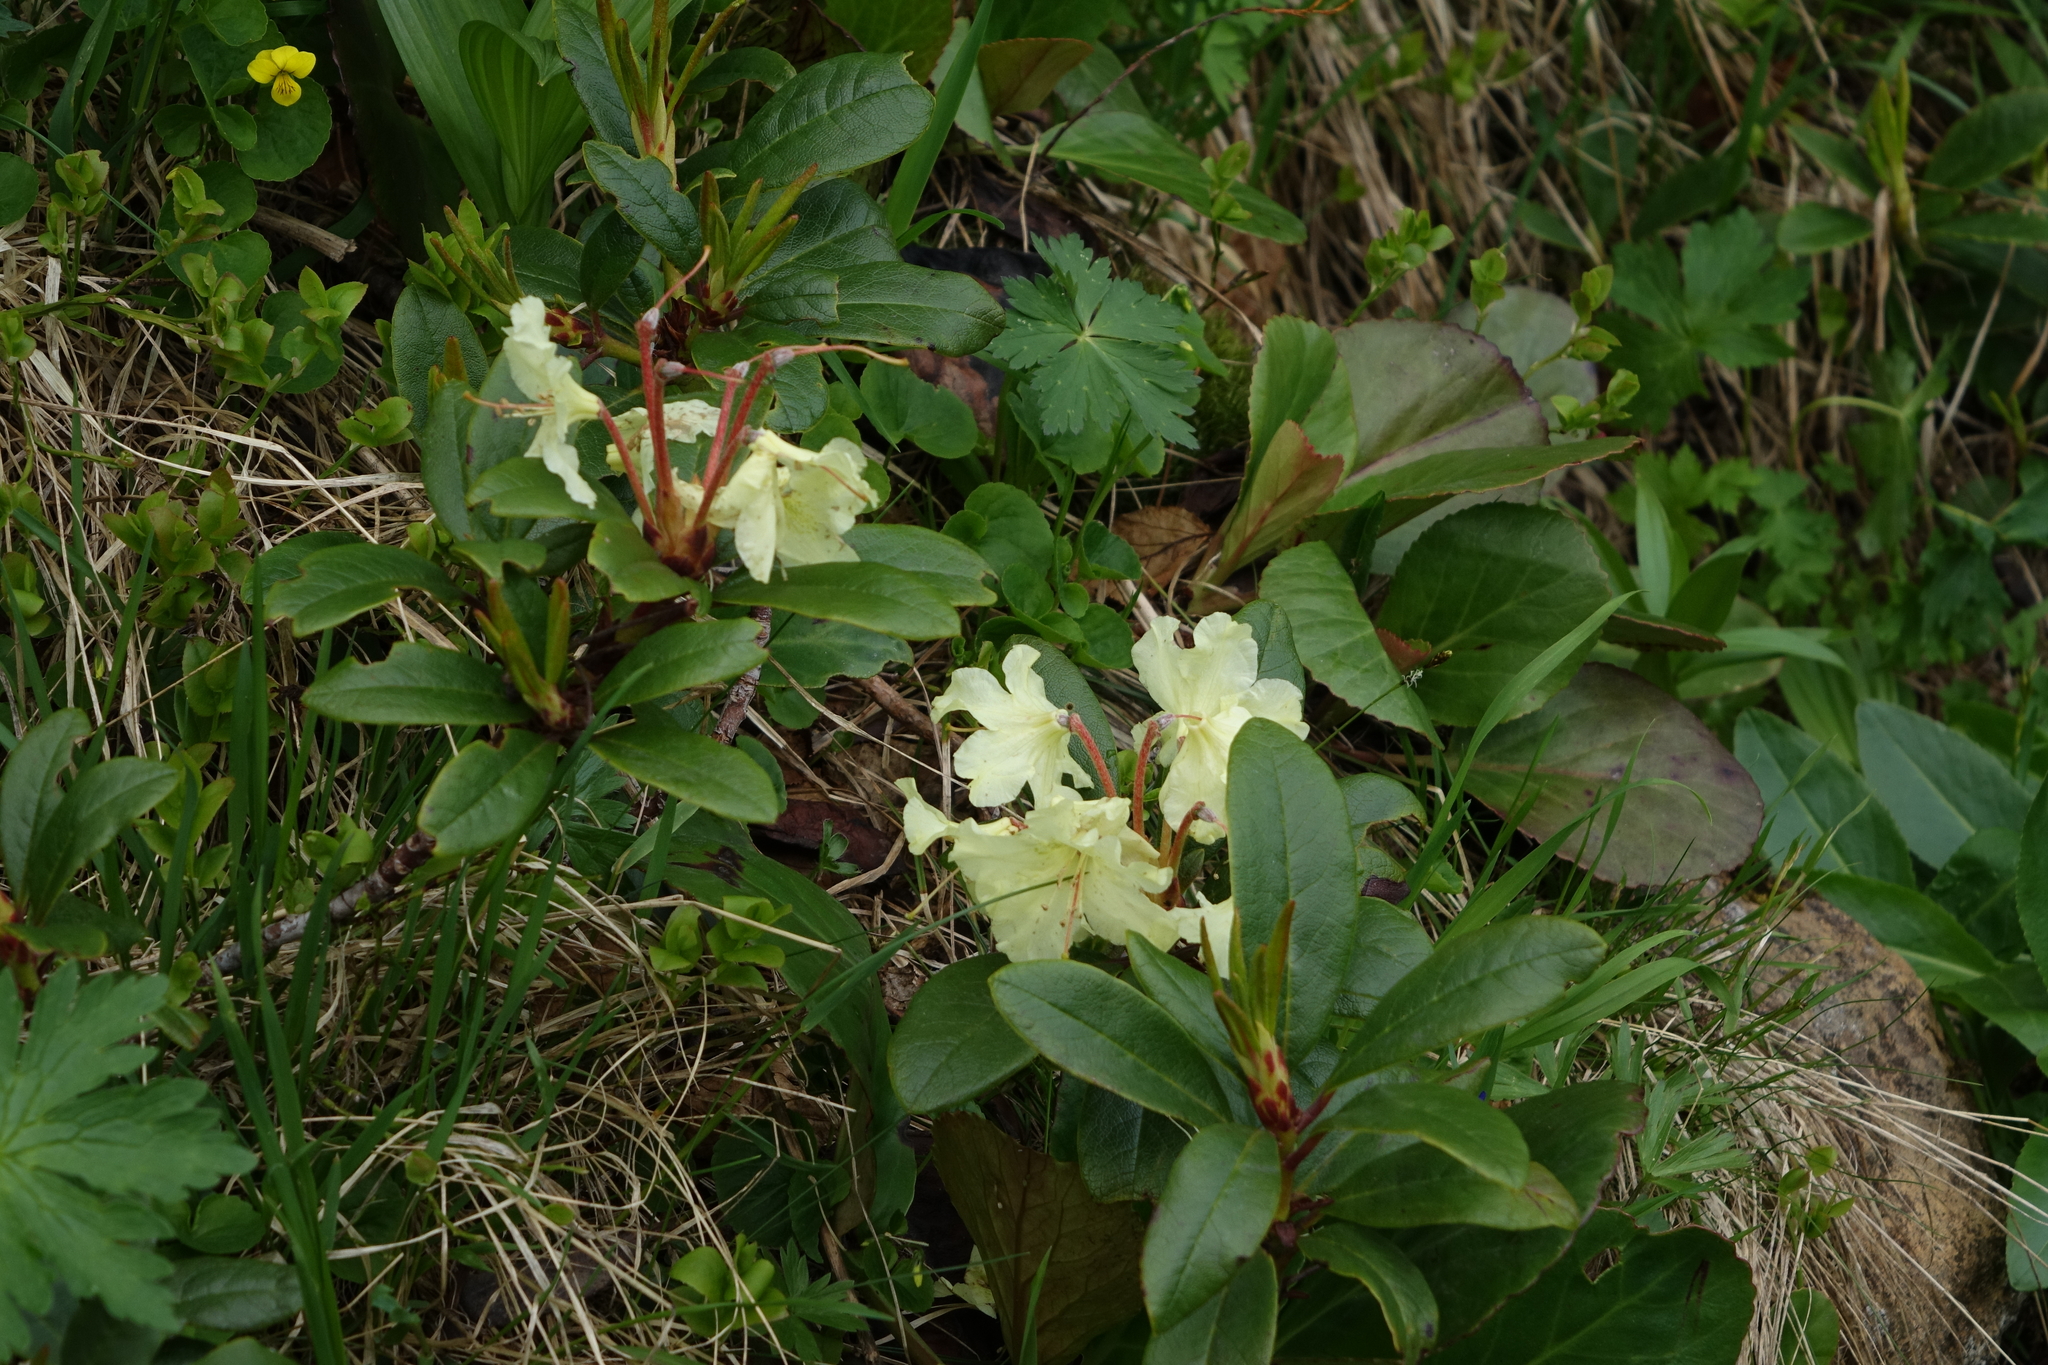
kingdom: Plantae
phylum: Tracheophyta
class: Magnoliopsida
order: Ericales
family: Ericaceae
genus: Rhododendron
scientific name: Rhododendron aureum
